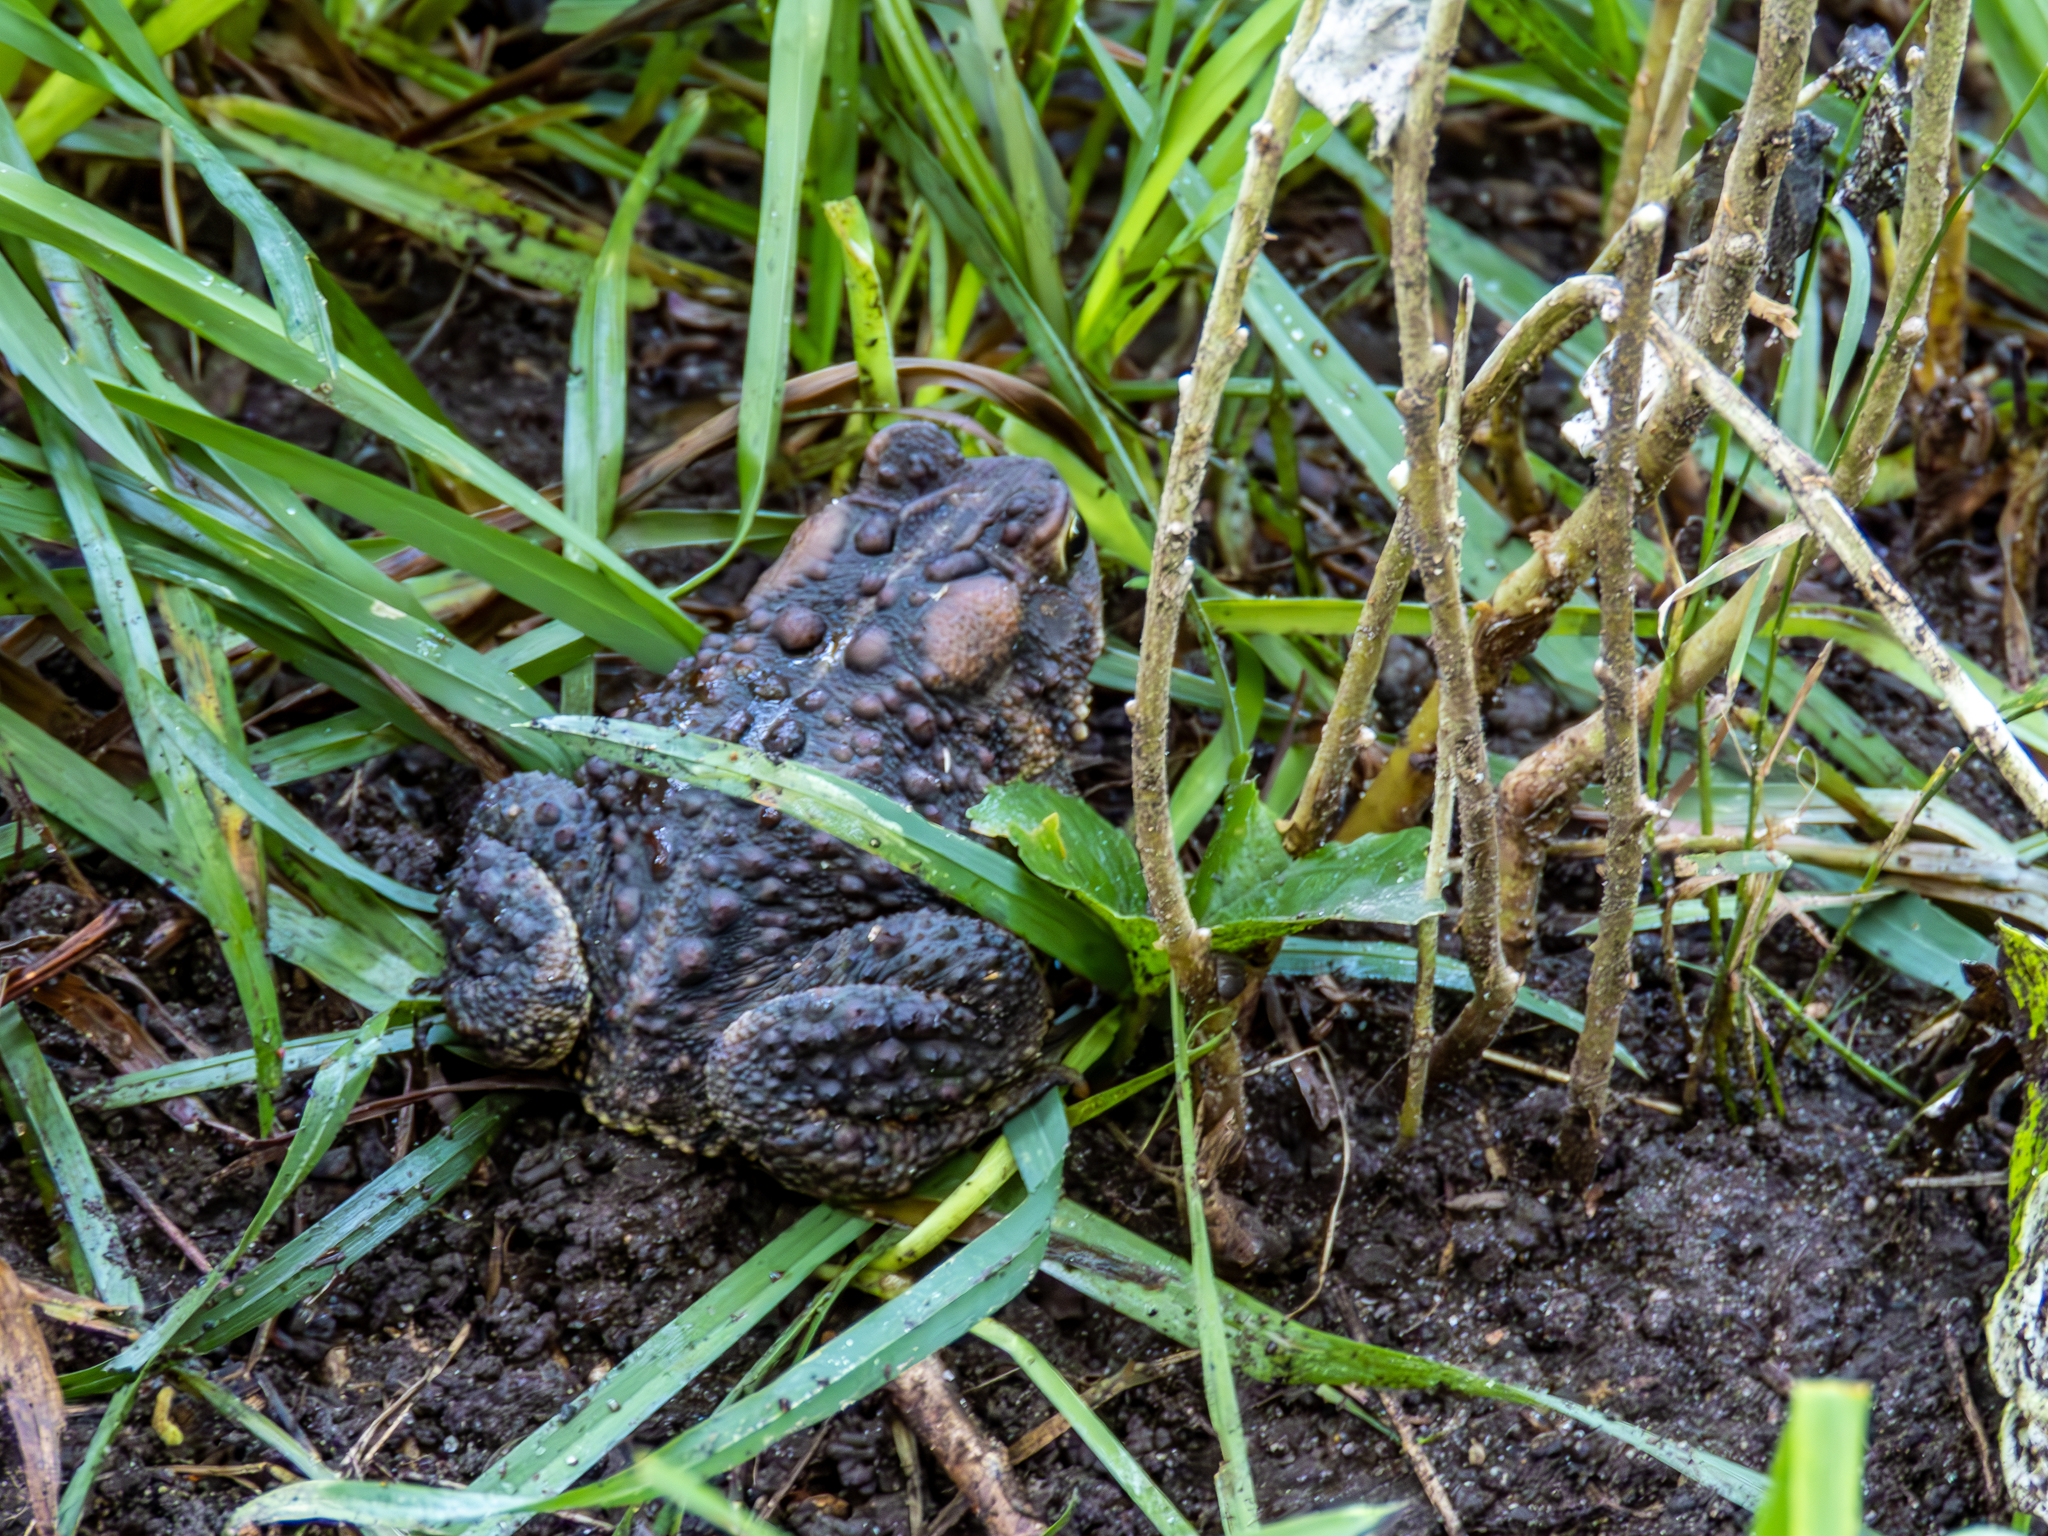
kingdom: Animalia
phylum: Chordata
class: Amphibia
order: Anura
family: Bufonidae
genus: Anaxyrus
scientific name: Anaxyrus americanus
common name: American toad
